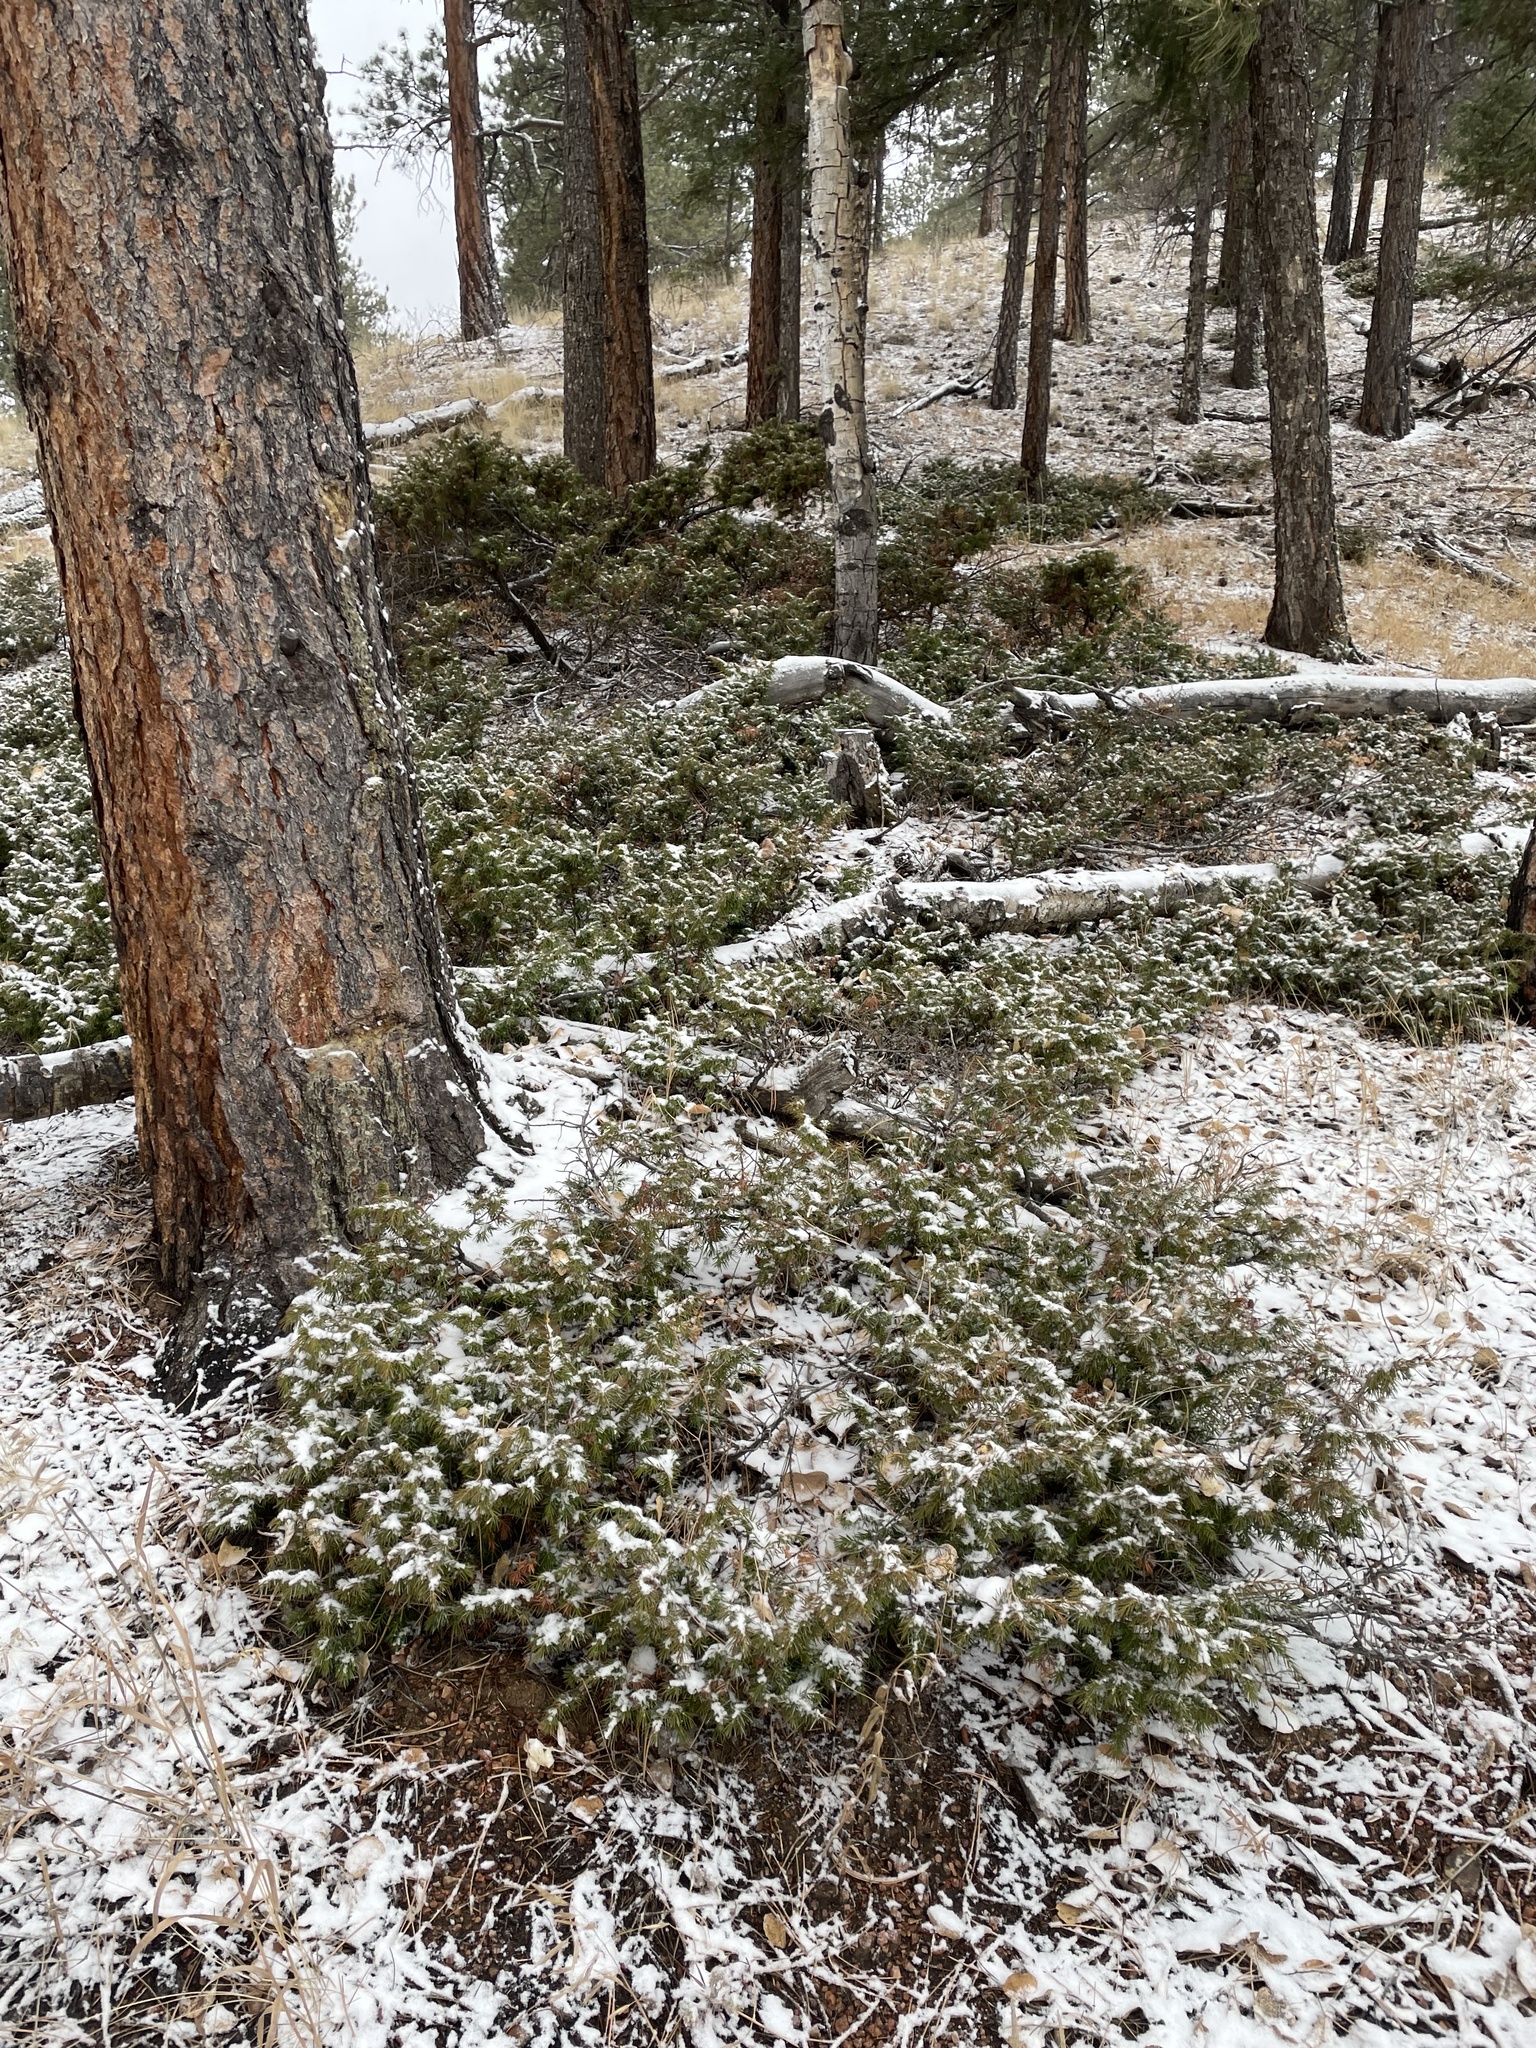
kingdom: Plantae
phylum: Tracheophyta
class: Pinopsida
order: Pinales
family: Cupressaceae
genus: Juniperus
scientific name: Juniperus communis
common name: Common juniper
